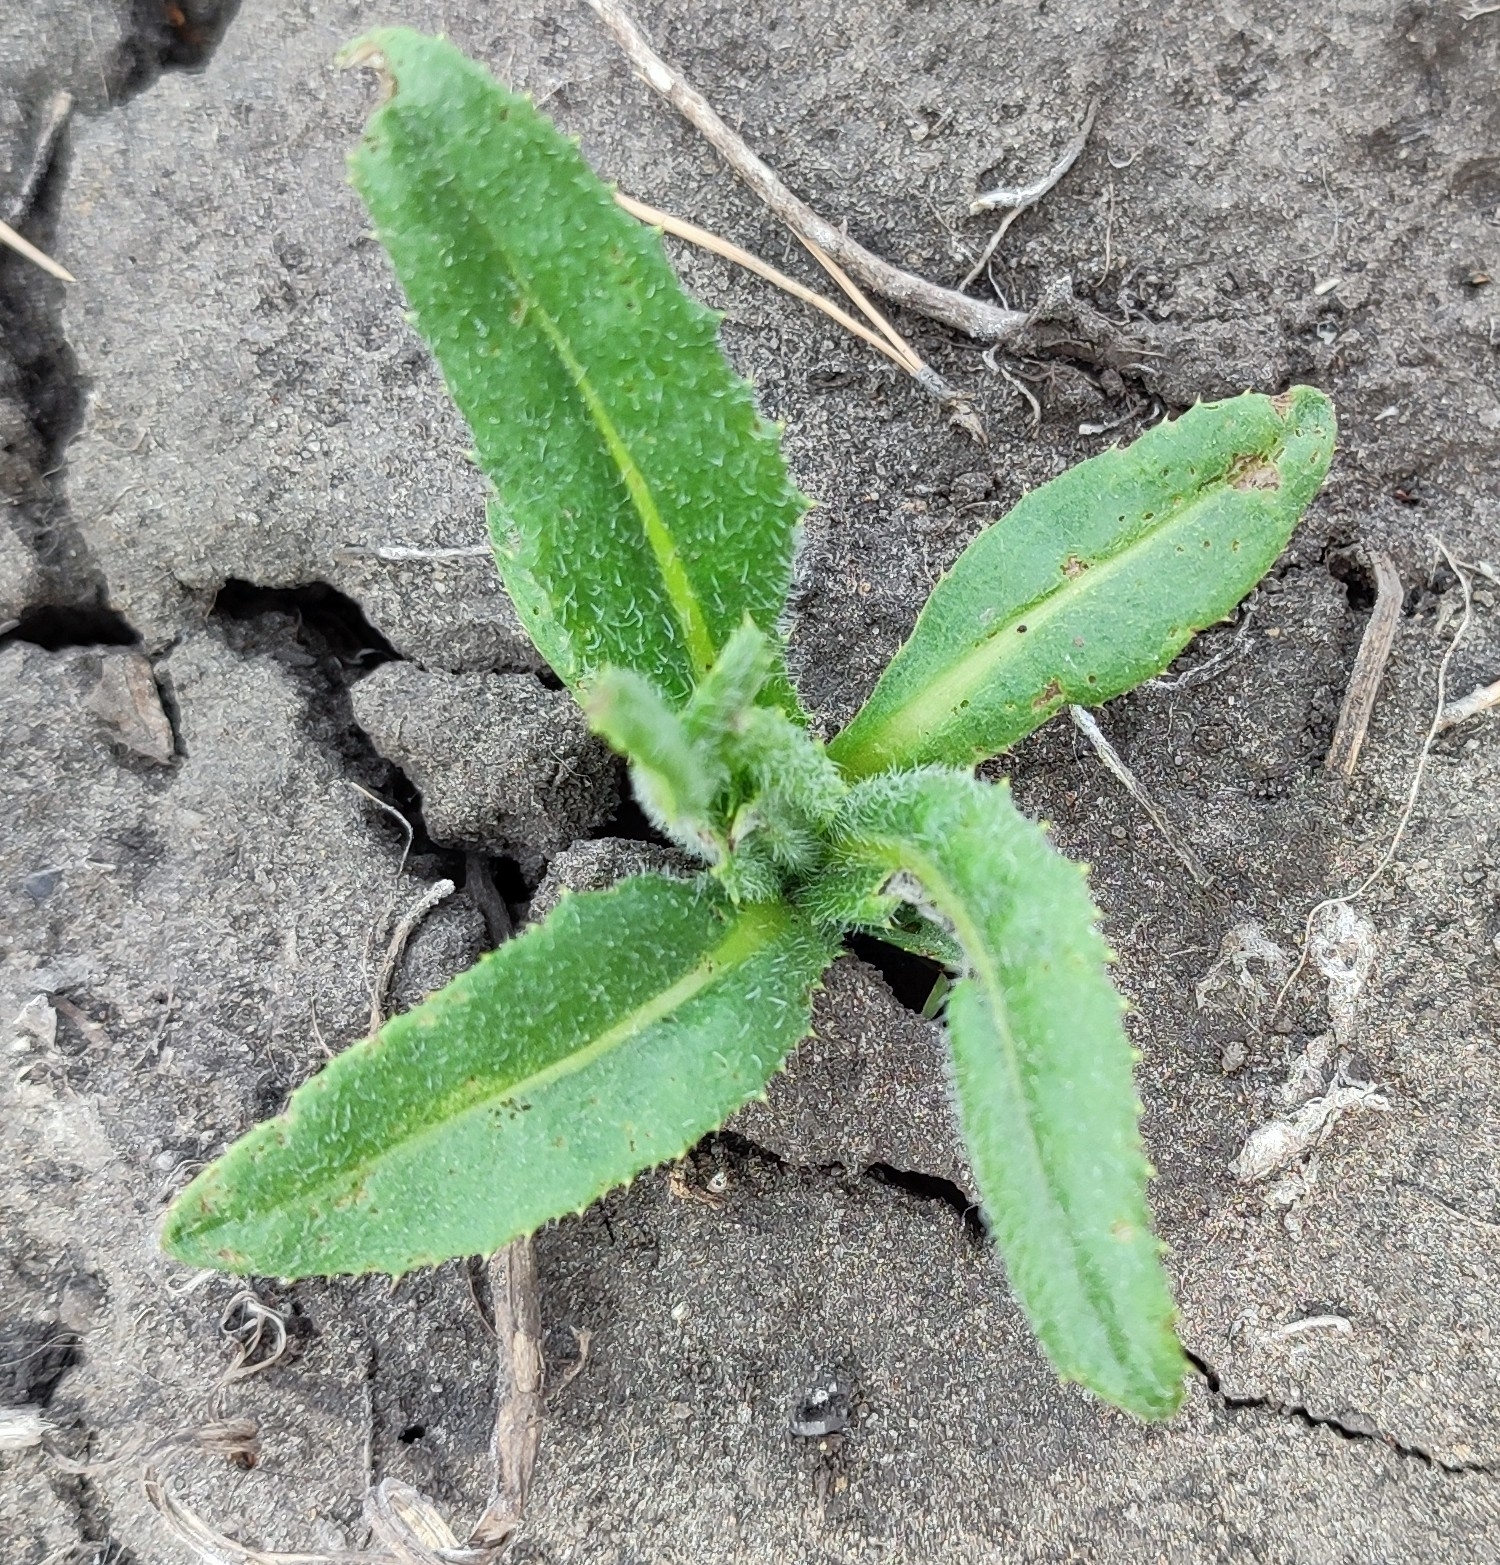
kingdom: Plantae
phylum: Tracheophyta
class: Magnoliopsida
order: Asterales
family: Asteraceae
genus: Cirsium
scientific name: Cirsium arvense
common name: Creeping thistle
